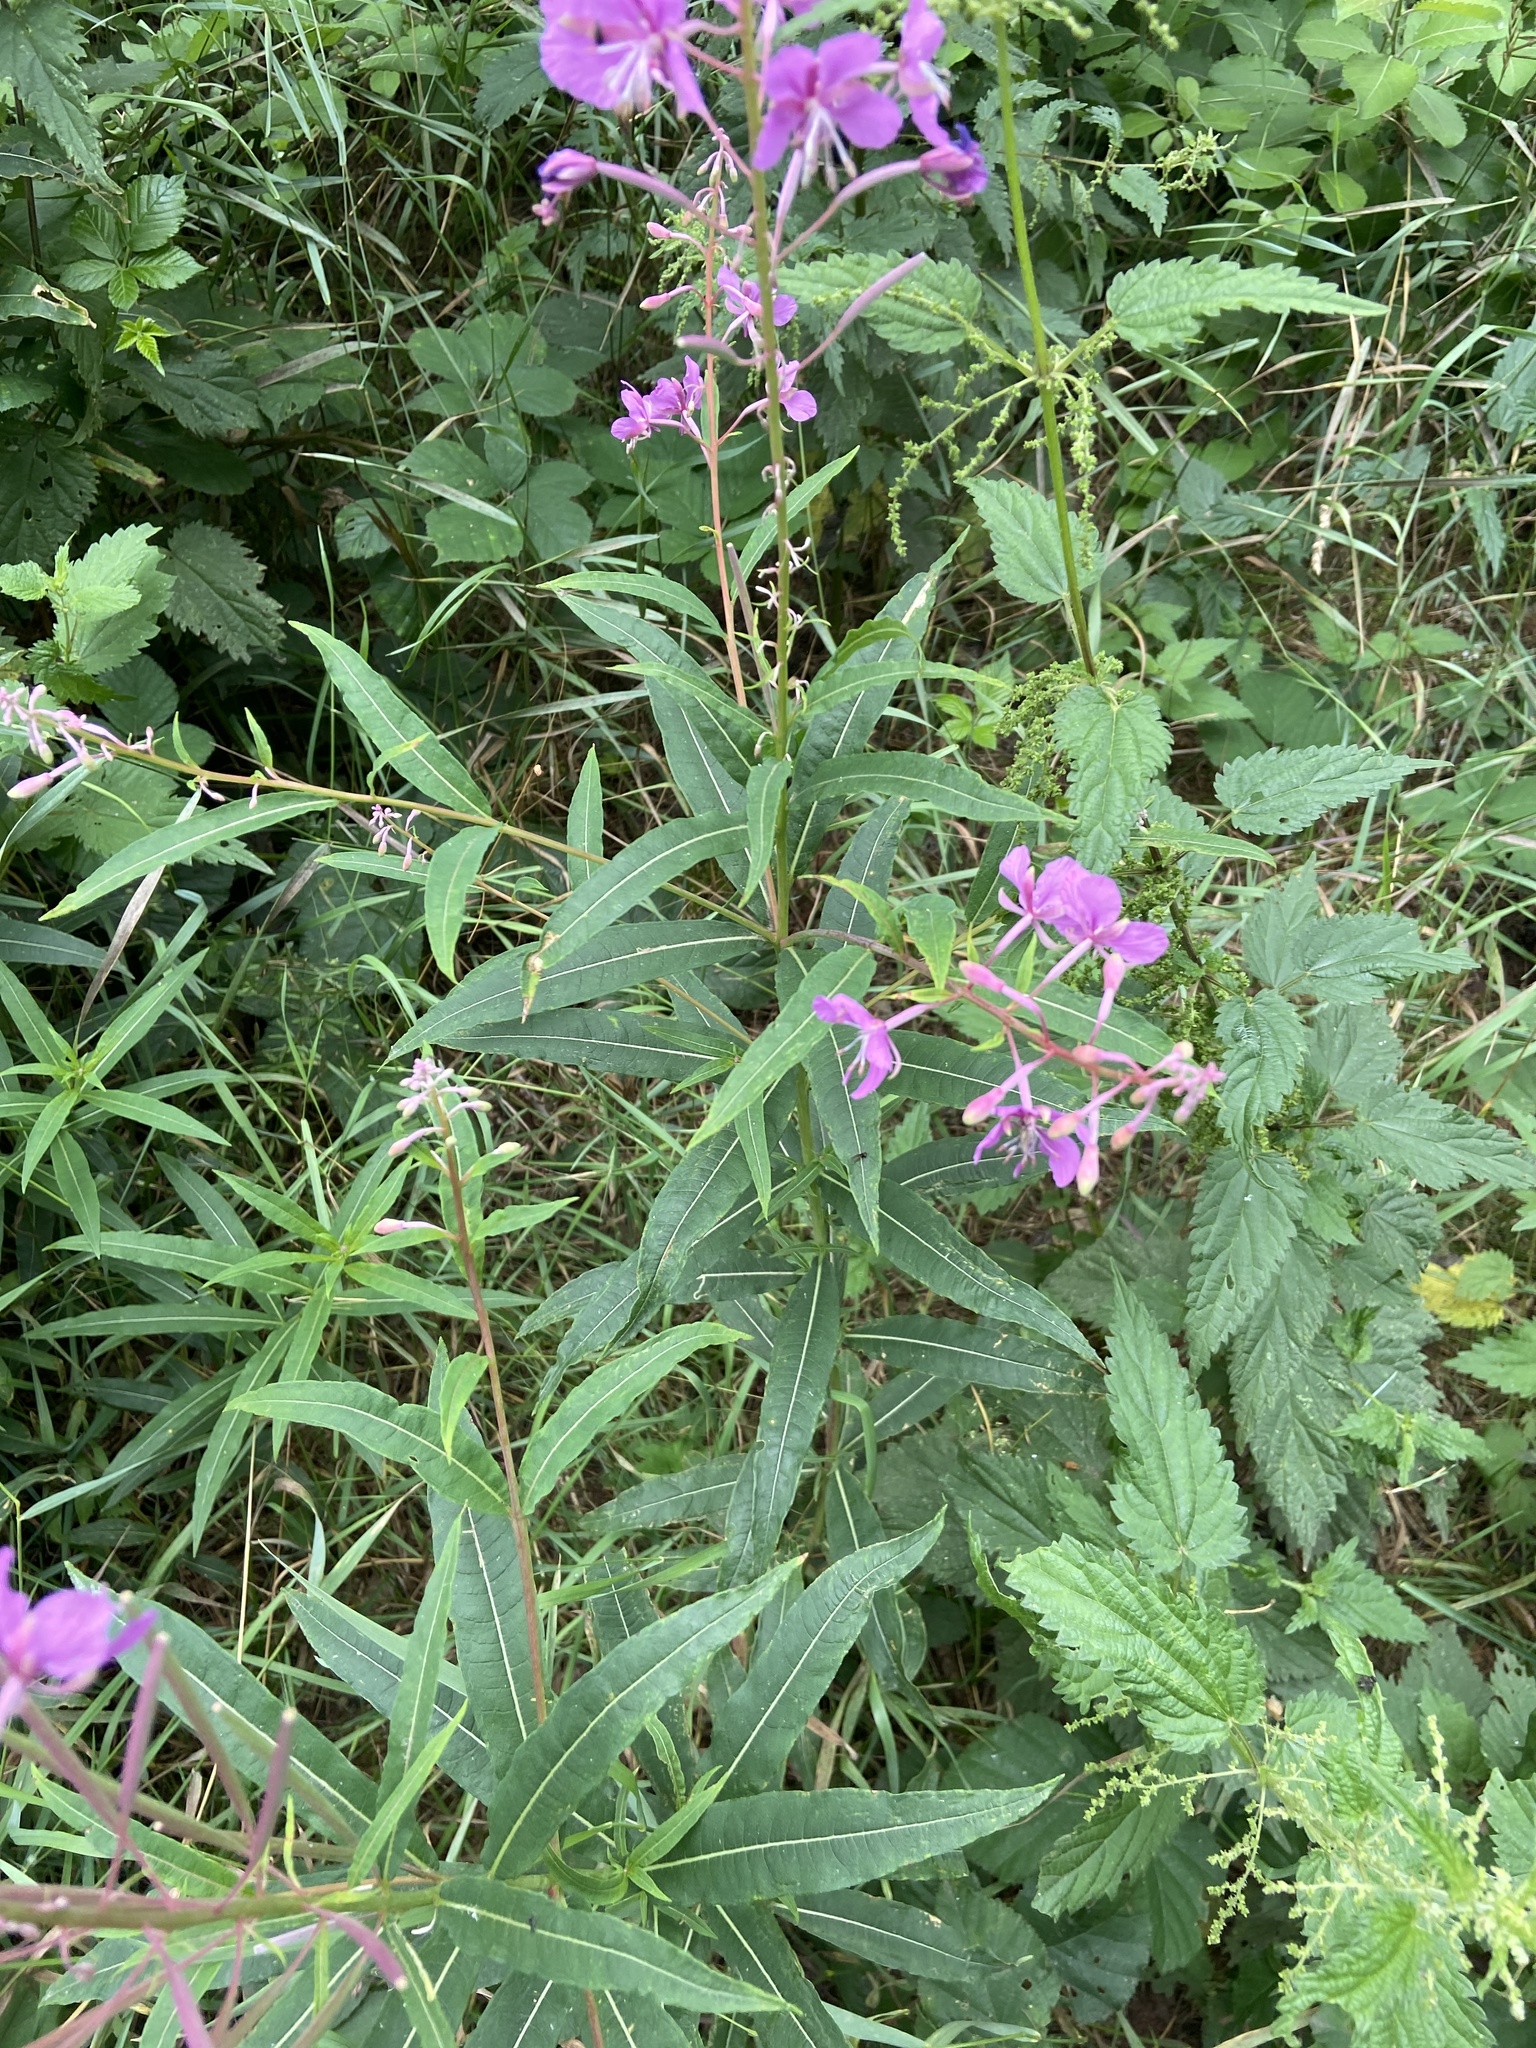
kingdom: Plantae
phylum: Tracheophyta
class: Magnoliopsida
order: Myrtales
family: Onagraceae
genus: Chamaenerion
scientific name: Chamaenerion angustifolium
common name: Fireweed
